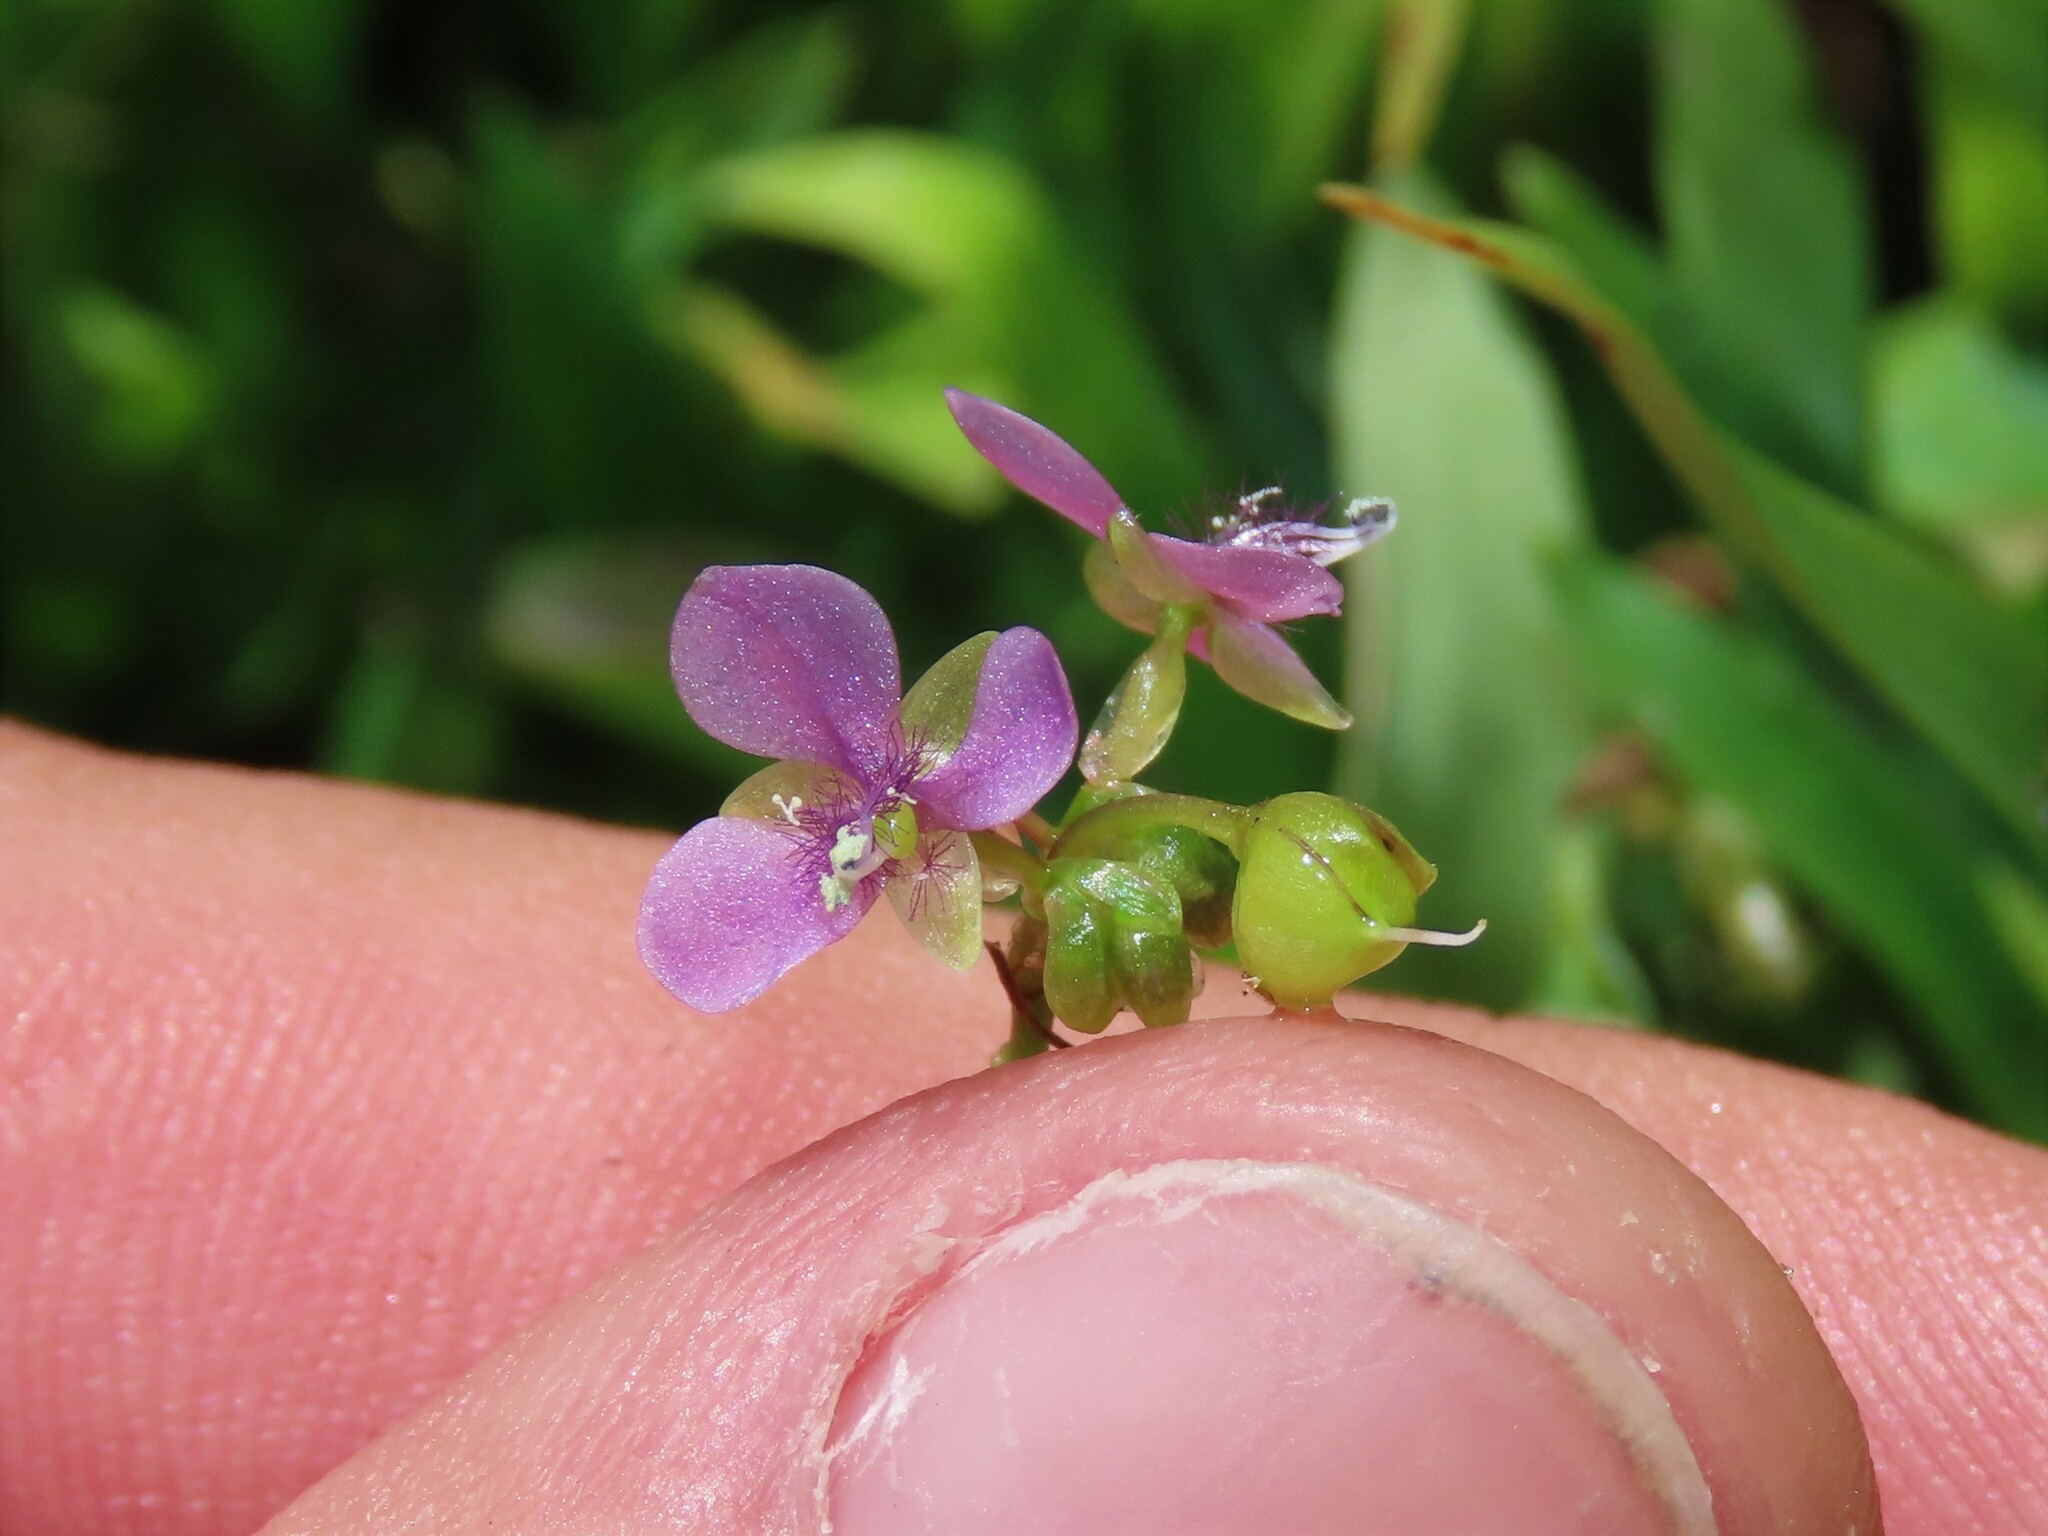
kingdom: Plantae
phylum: Tracheophyta
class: Liliopsida
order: Commelinales
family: Commelinaceae
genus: Murdannia
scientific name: Murdannia nudiflora
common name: Nakedstem dewflower
